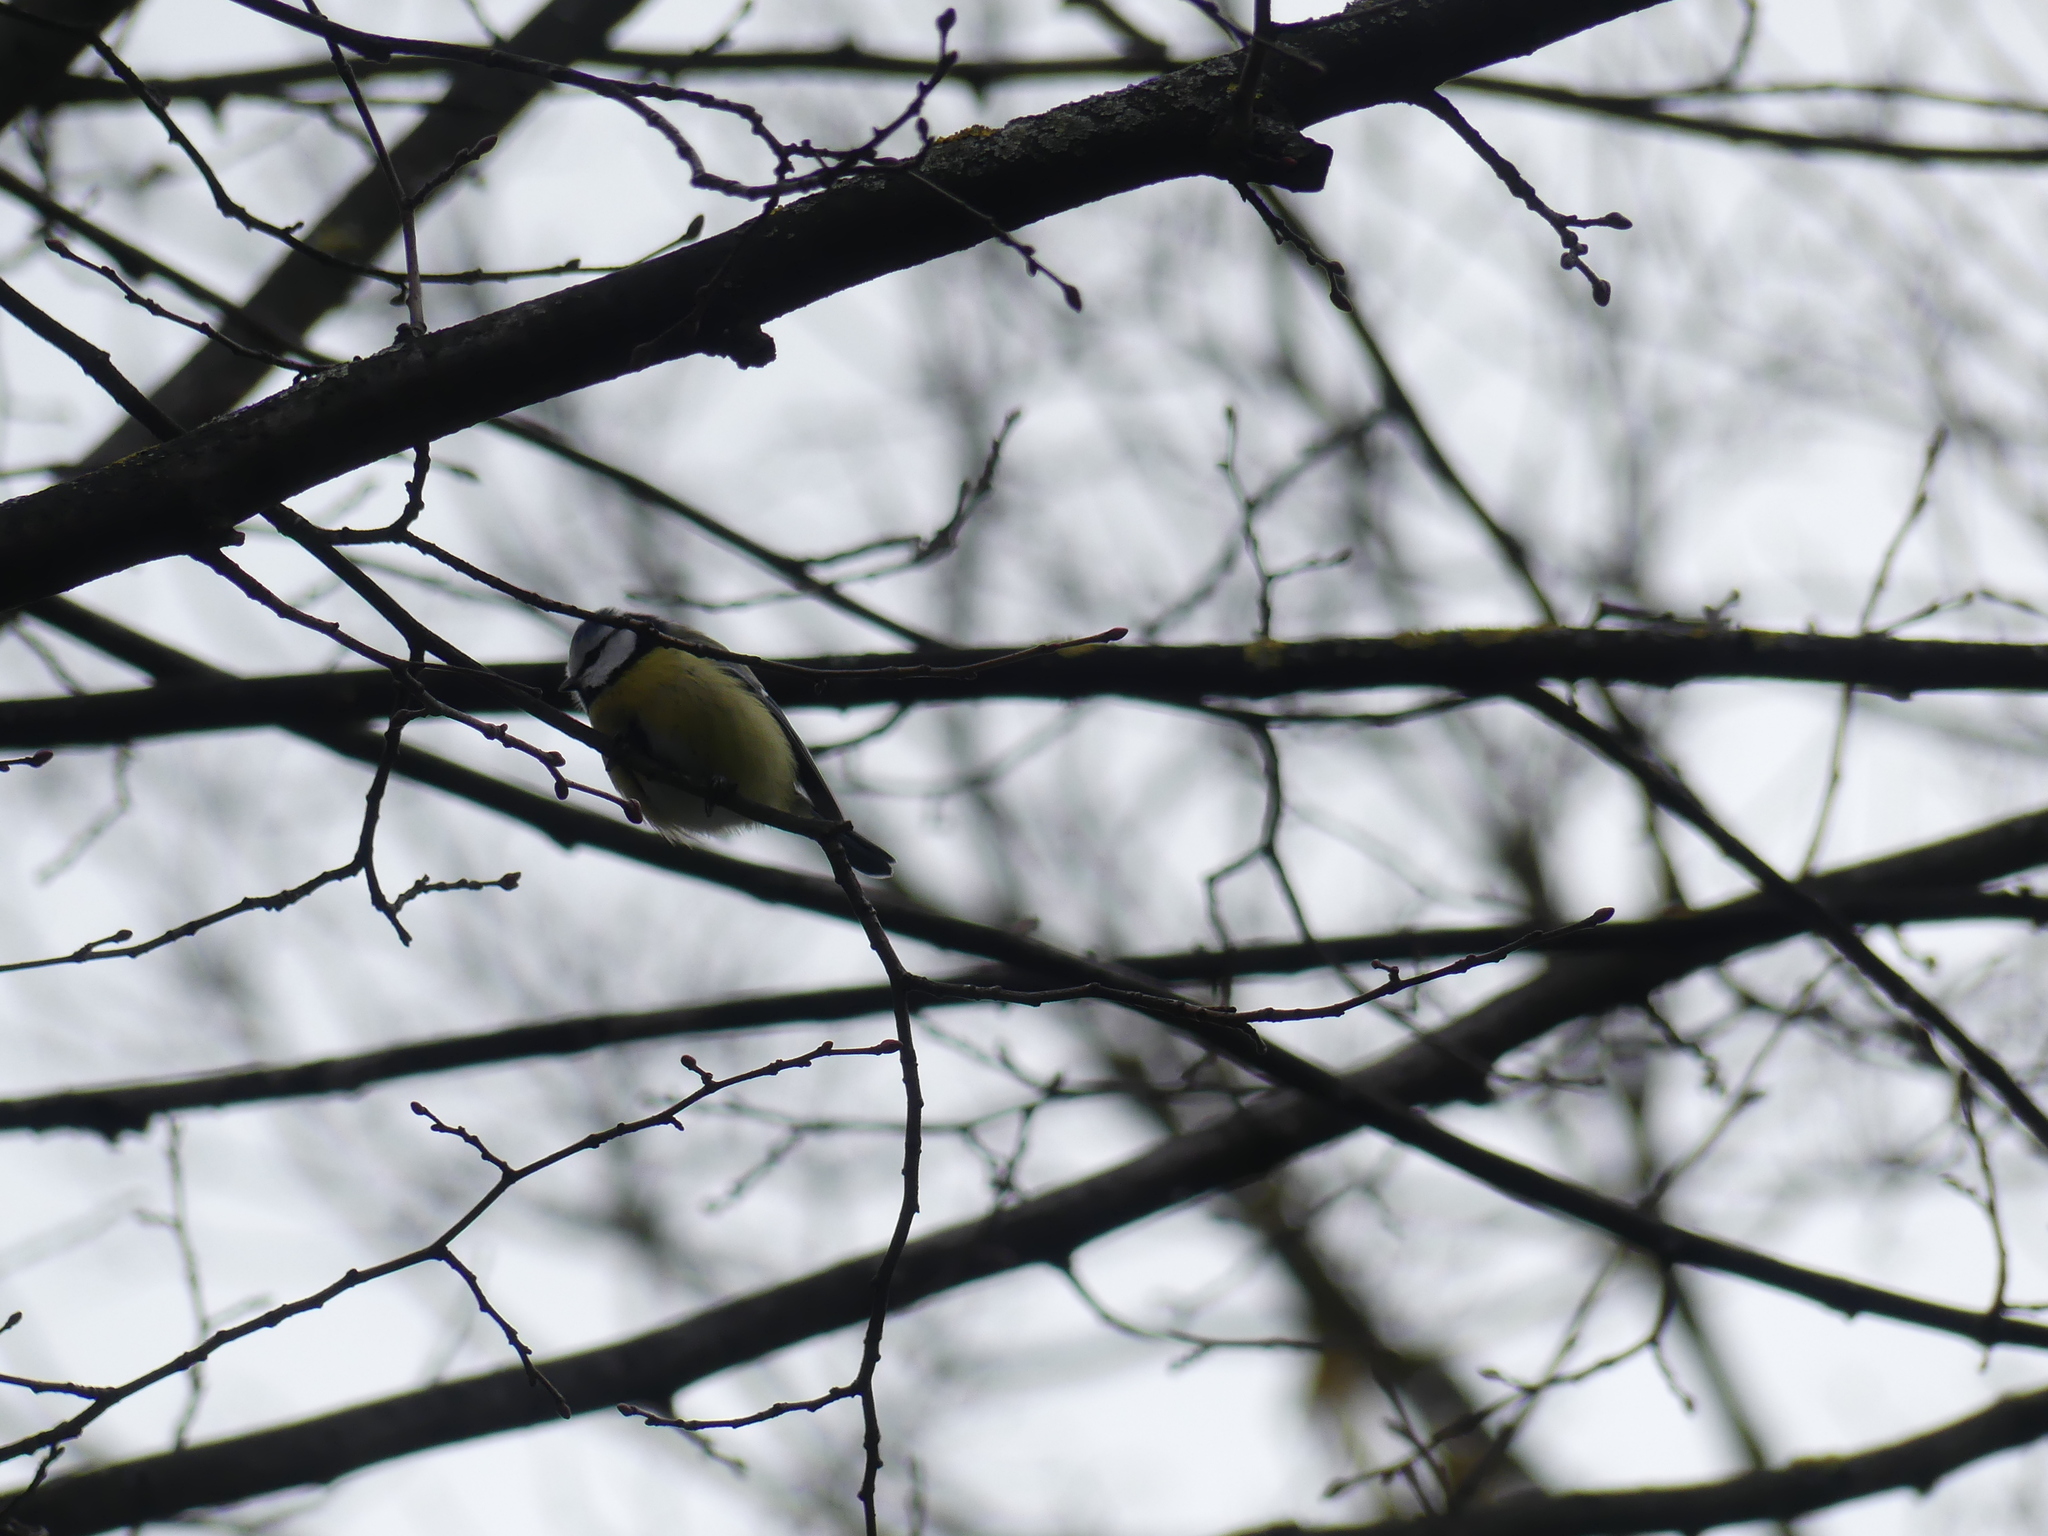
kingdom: Animalia
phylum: Chordata
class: Aves
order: Passeriformes
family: Paridae
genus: Cyanistes
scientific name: Cyanistes caeruleus
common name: Eurasian blue tit
